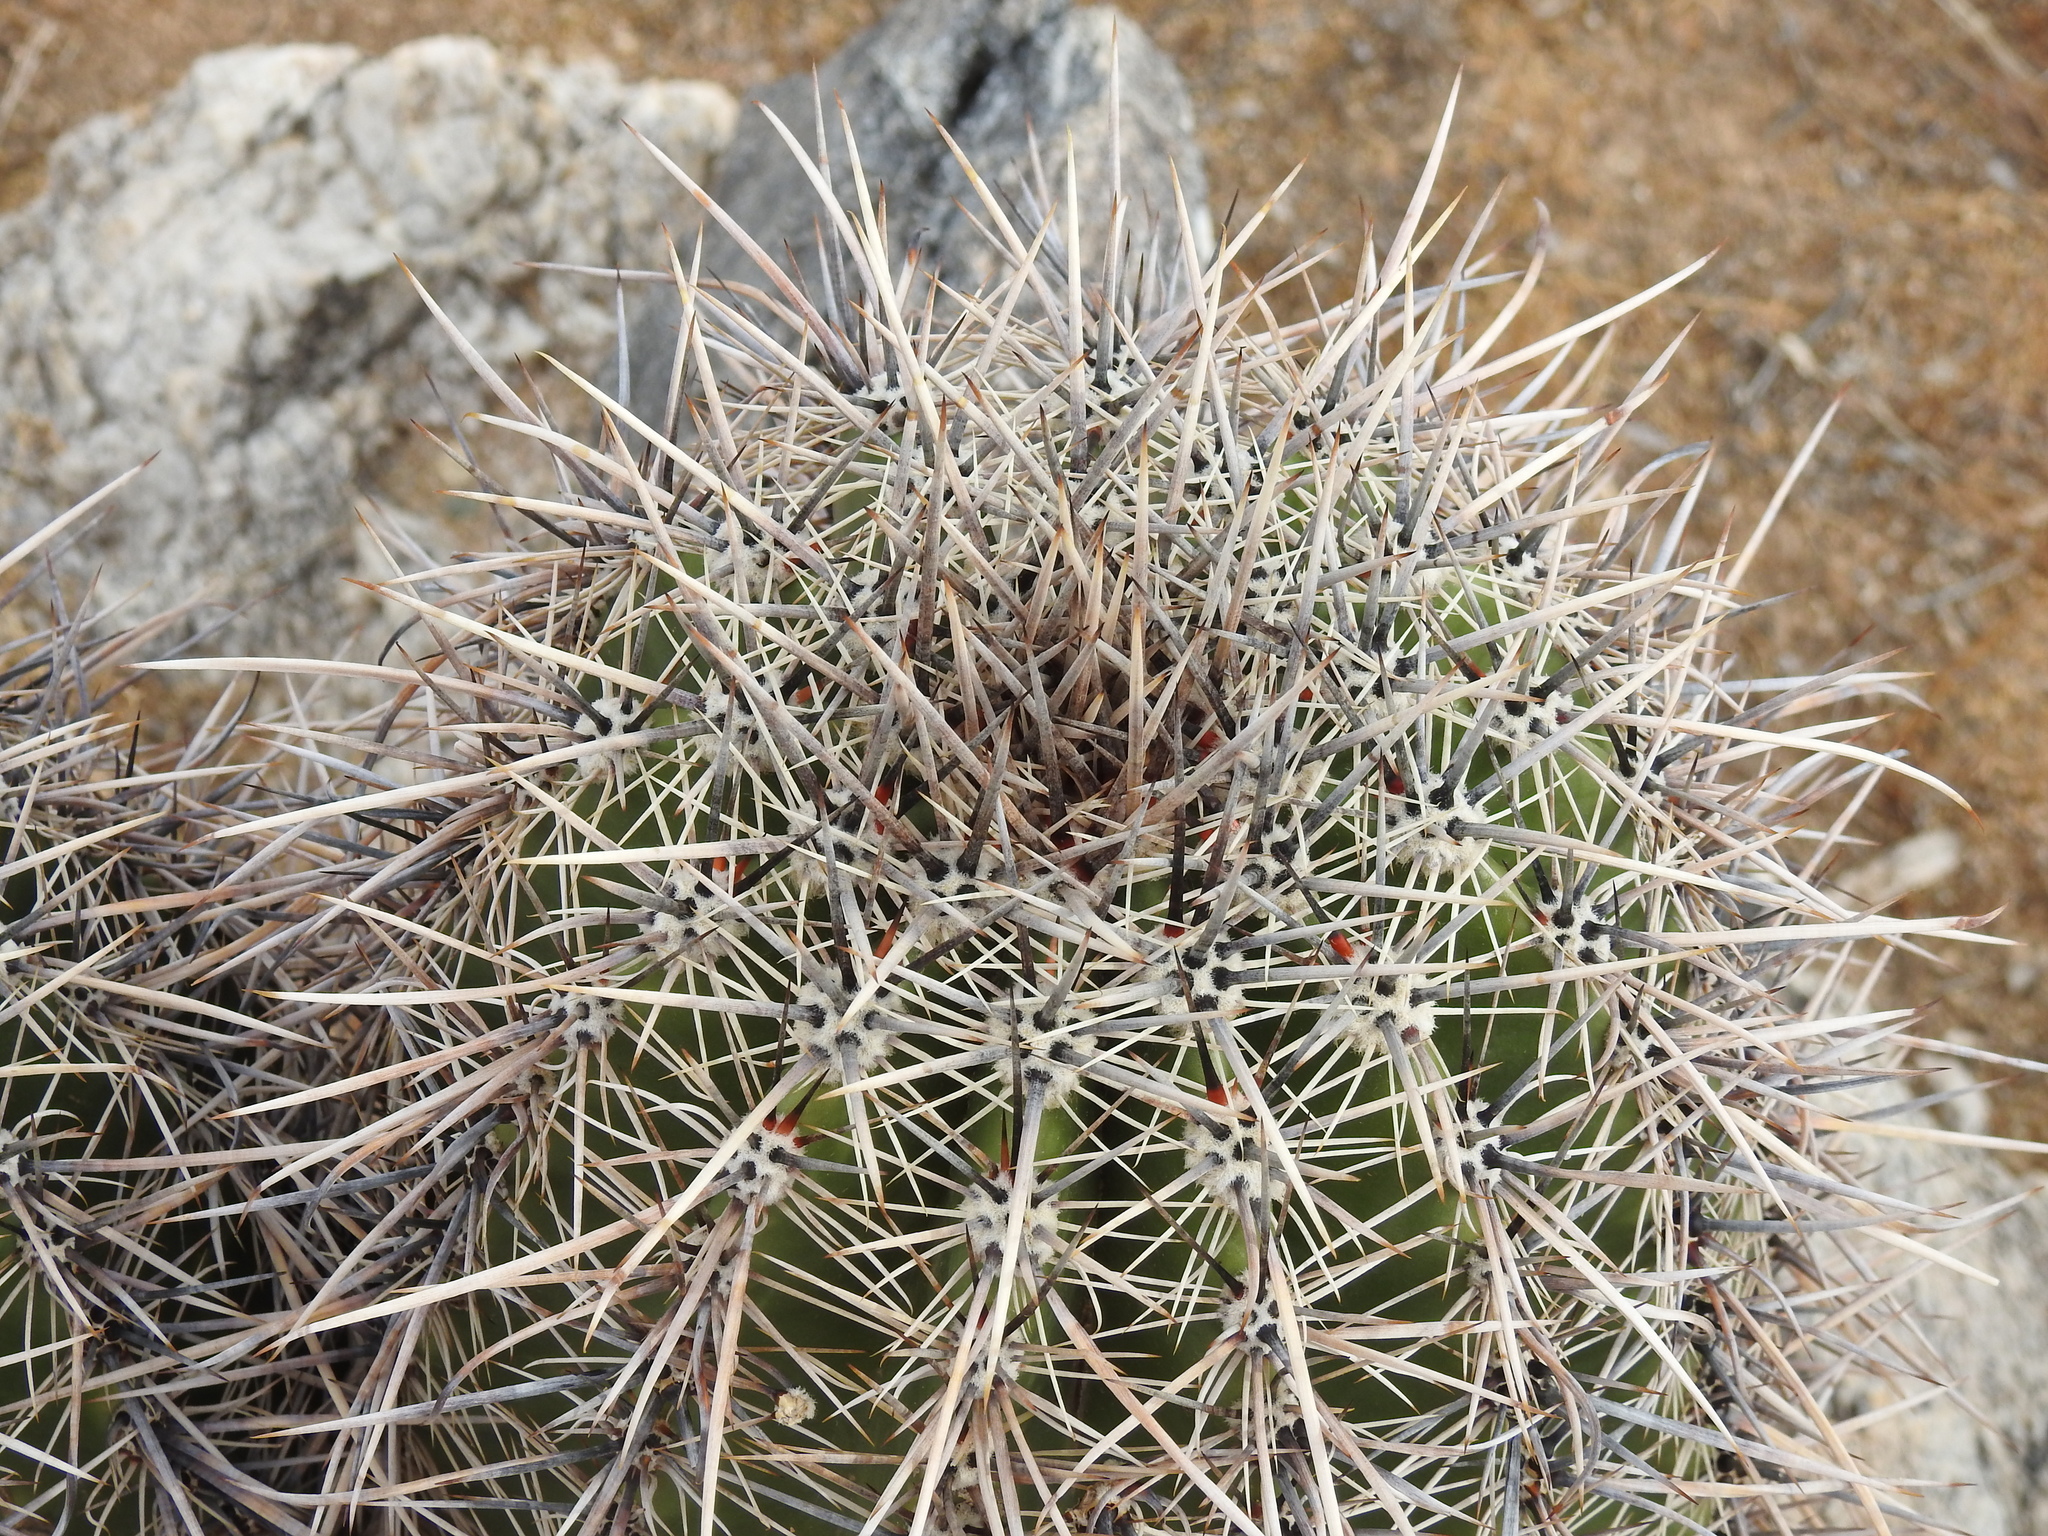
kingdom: Plantae
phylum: Tracheophyta
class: Magnoliopsida
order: Caryophyllales
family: Cactaceae
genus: Carnegiea
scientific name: Carnegiea gigantea
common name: Saguaro
